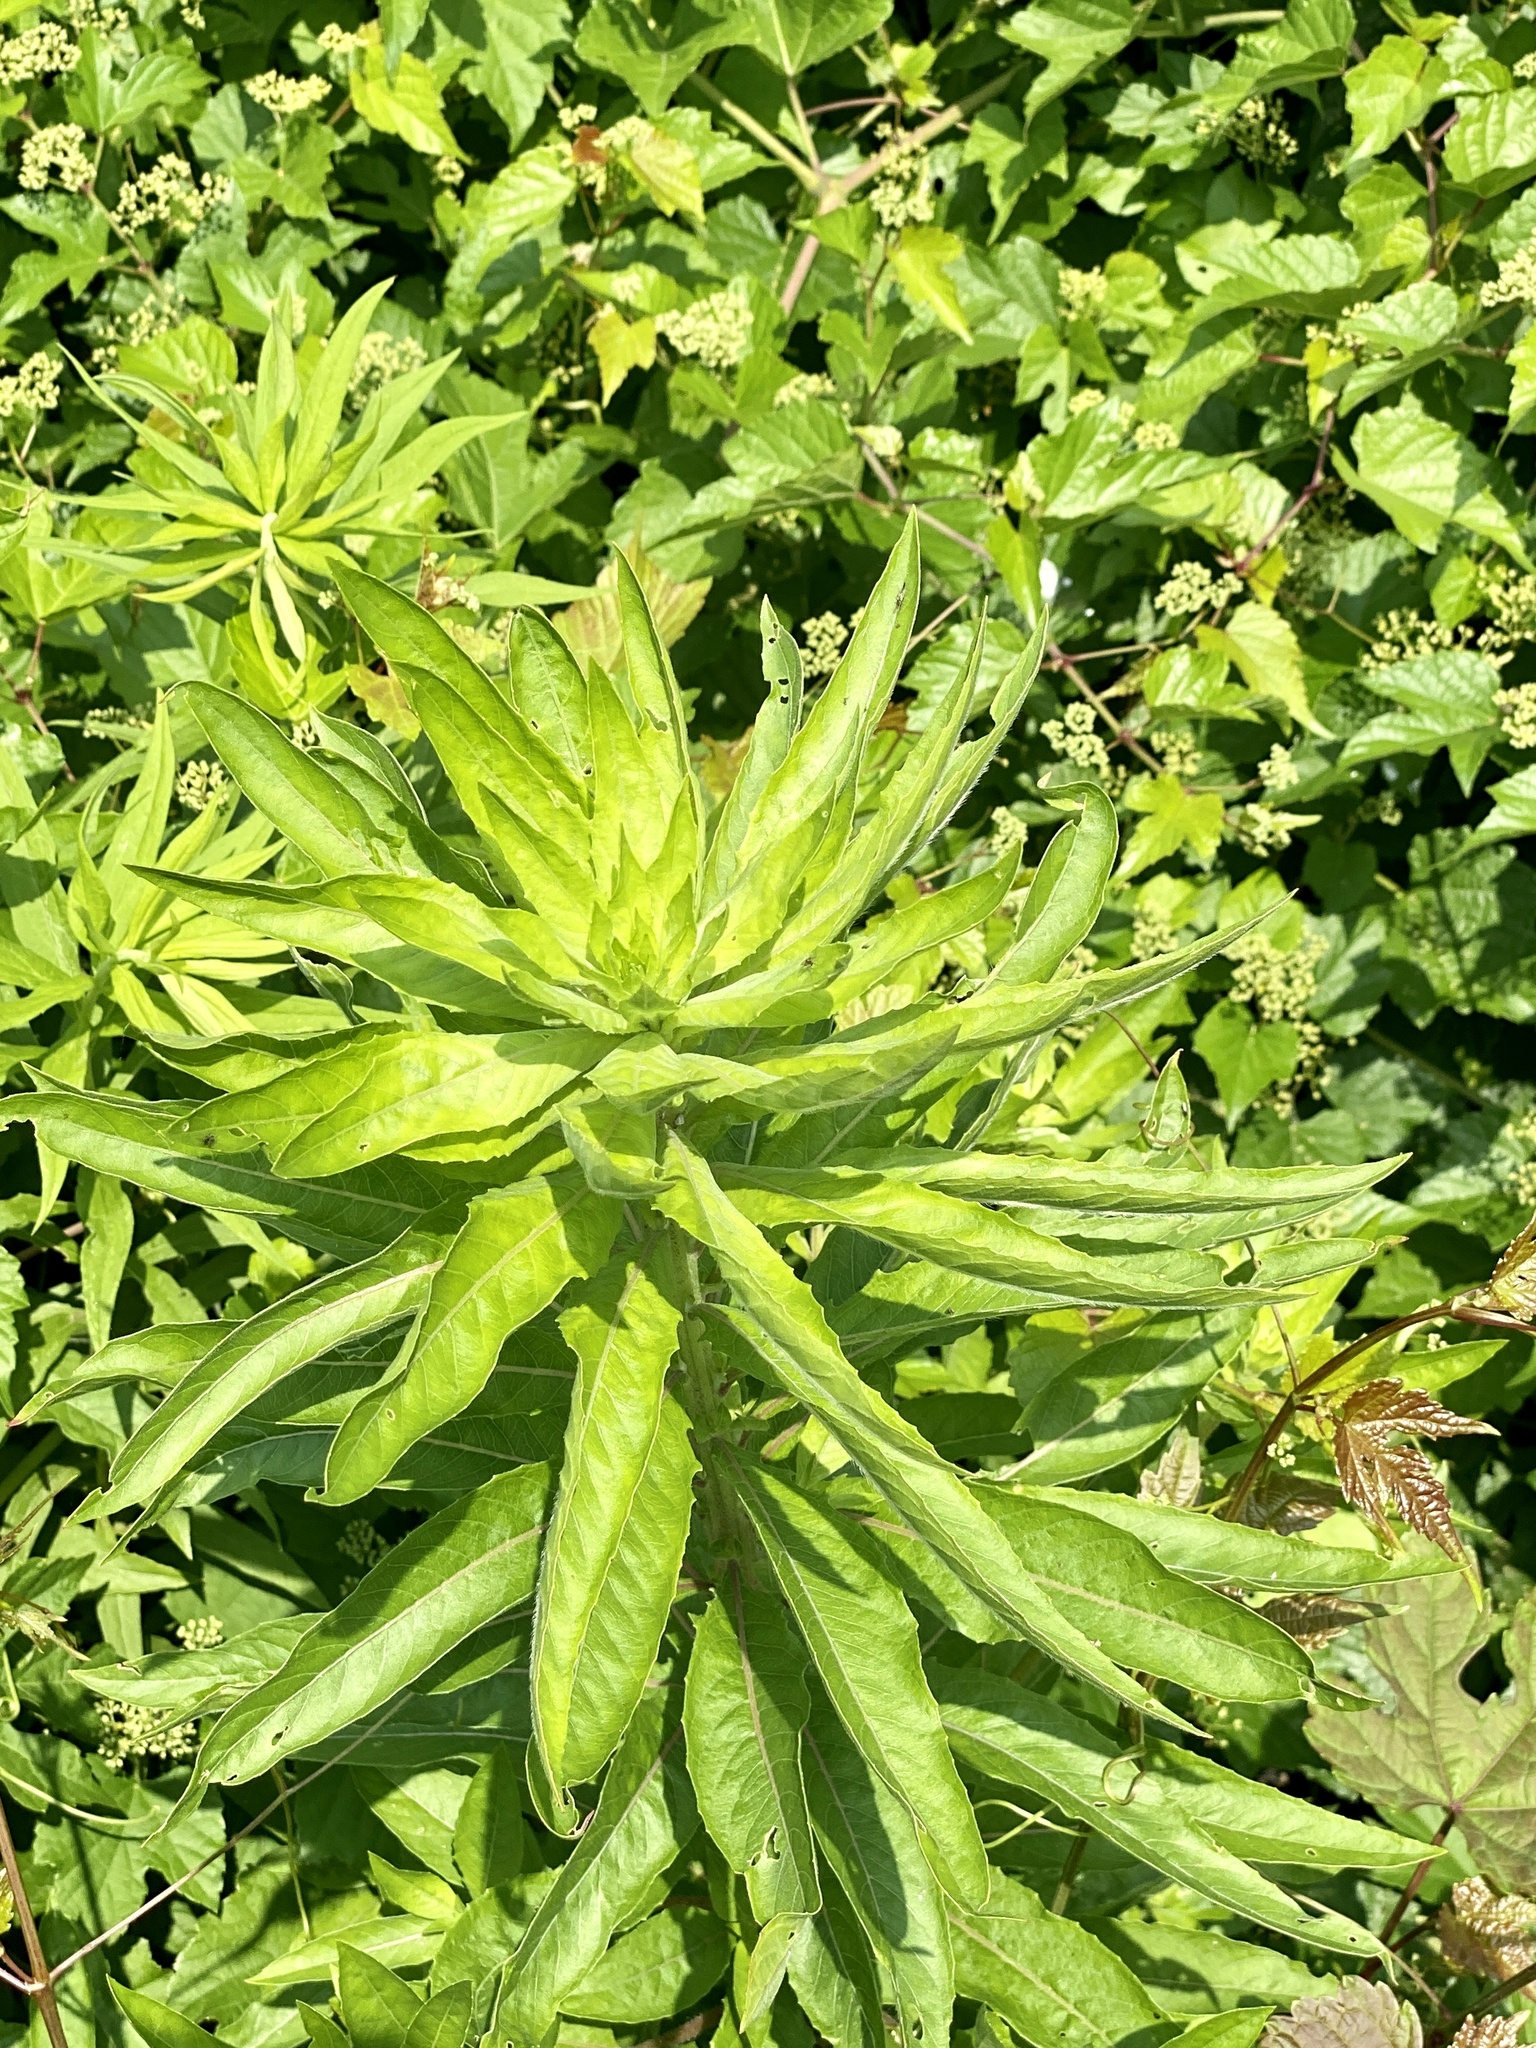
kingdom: Plantae
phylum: Tracheophyta
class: Magnoliopsida
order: Myrtales
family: Onagraceae
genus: Oenothera
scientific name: Oenothera biennis
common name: Common evening-primrose
